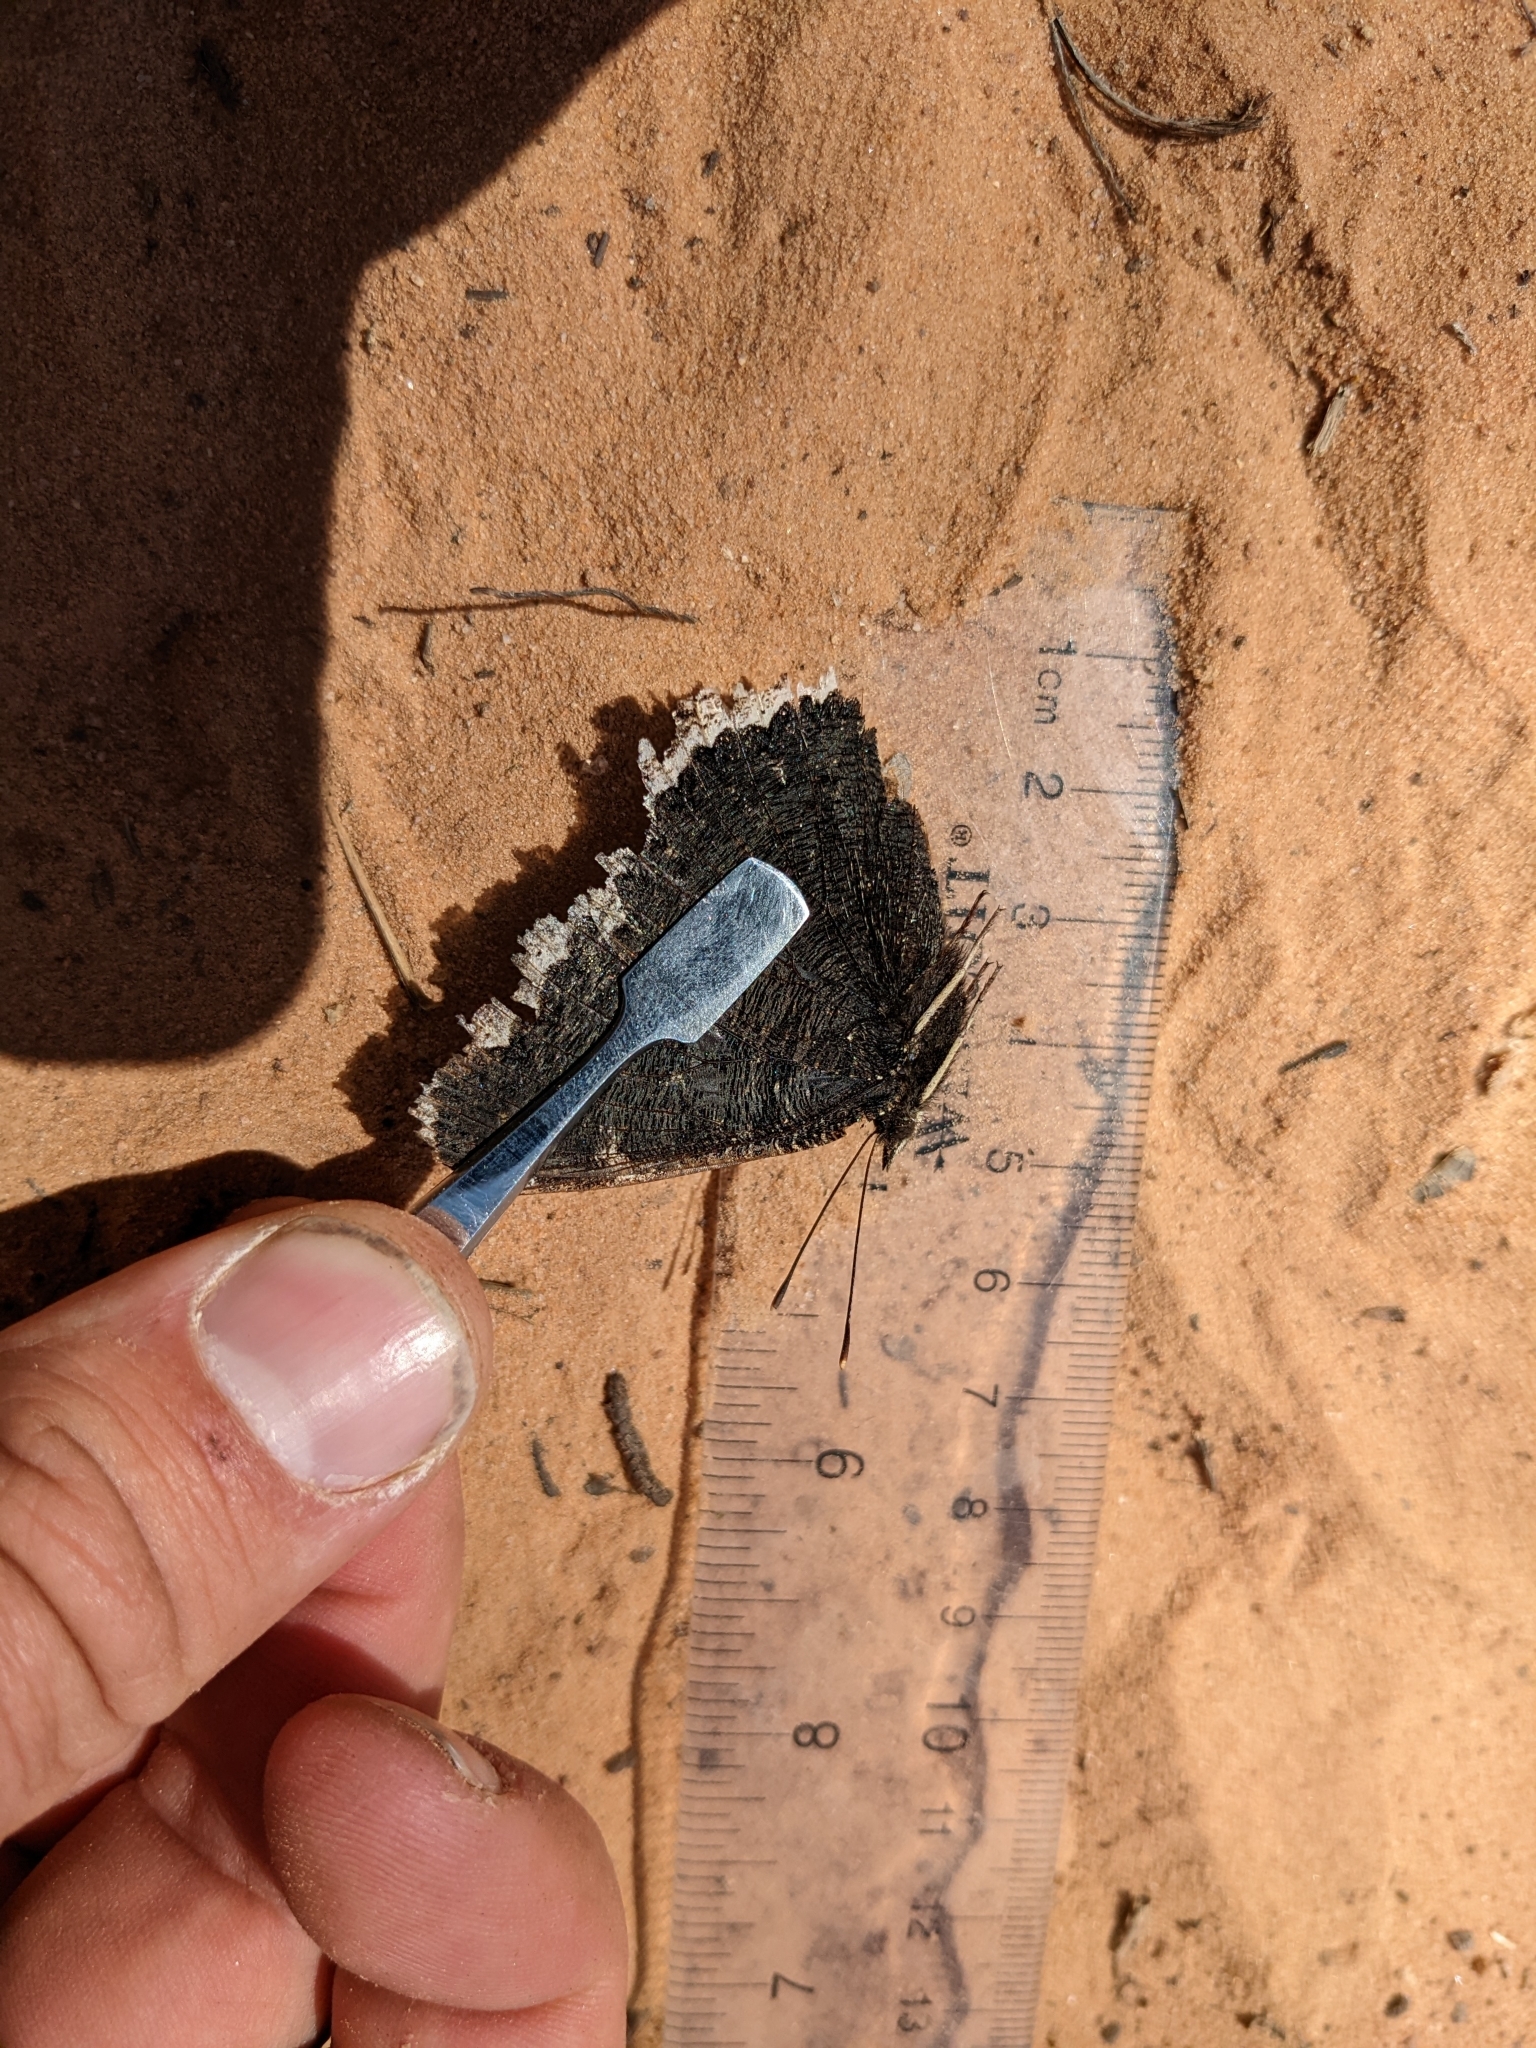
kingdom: Animalia
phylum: Arthropoda
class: Insecta
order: Lepidoptera
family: Nymphalidae
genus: Nymphalis
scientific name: Nymphalis antiopa
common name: Camberwell beauty
